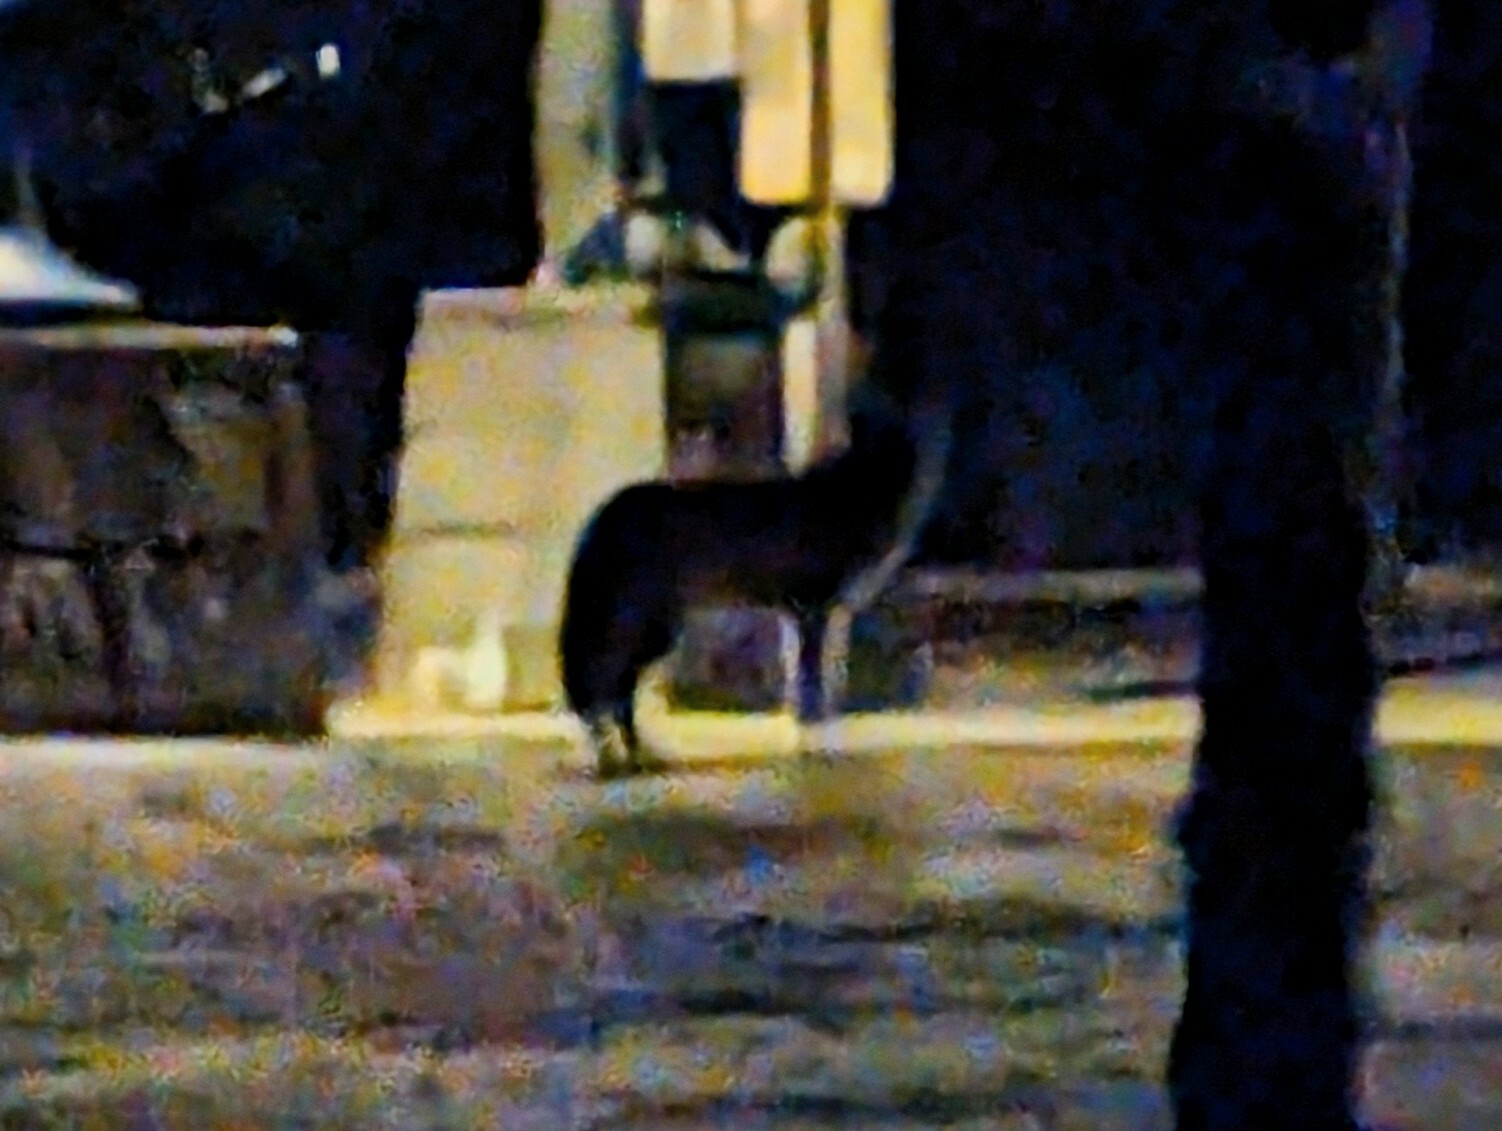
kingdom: Animalia
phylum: Chordata
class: Mammalia
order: Carnivora
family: Canidae
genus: Canis
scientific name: Canis latrans
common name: Coyote
